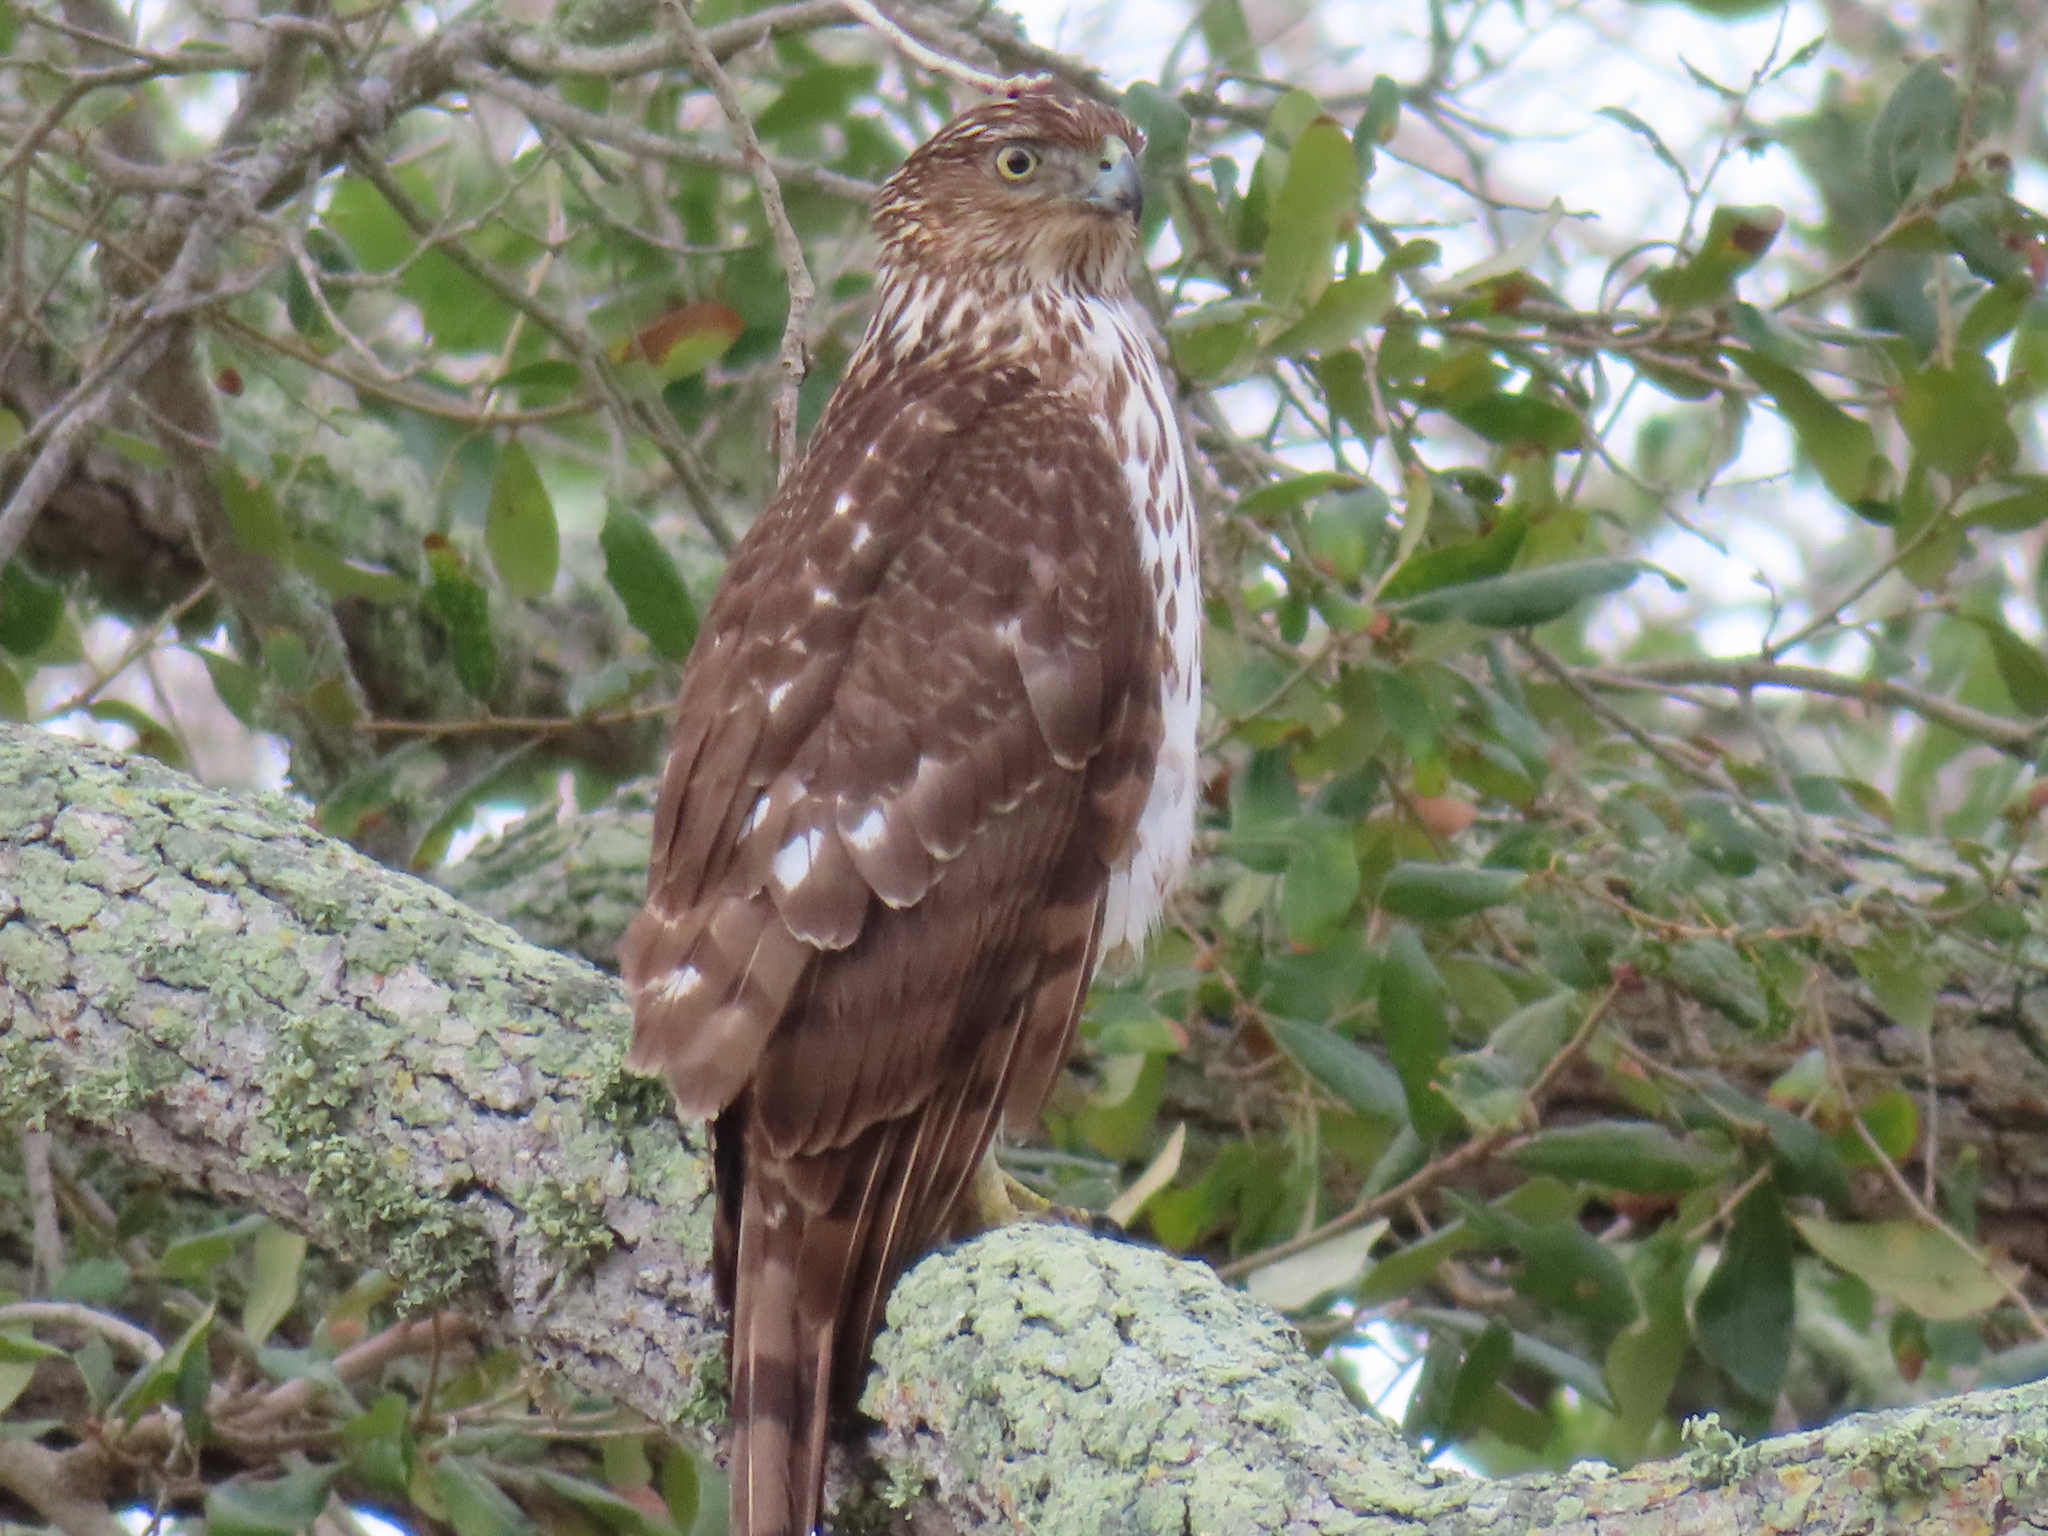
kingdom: Animalia
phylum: Chordata
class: Aves
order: Accipitriformes
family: Accipitridae
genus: Accipiter
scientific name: Accipiter cooperii
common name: Cooper's hawk
